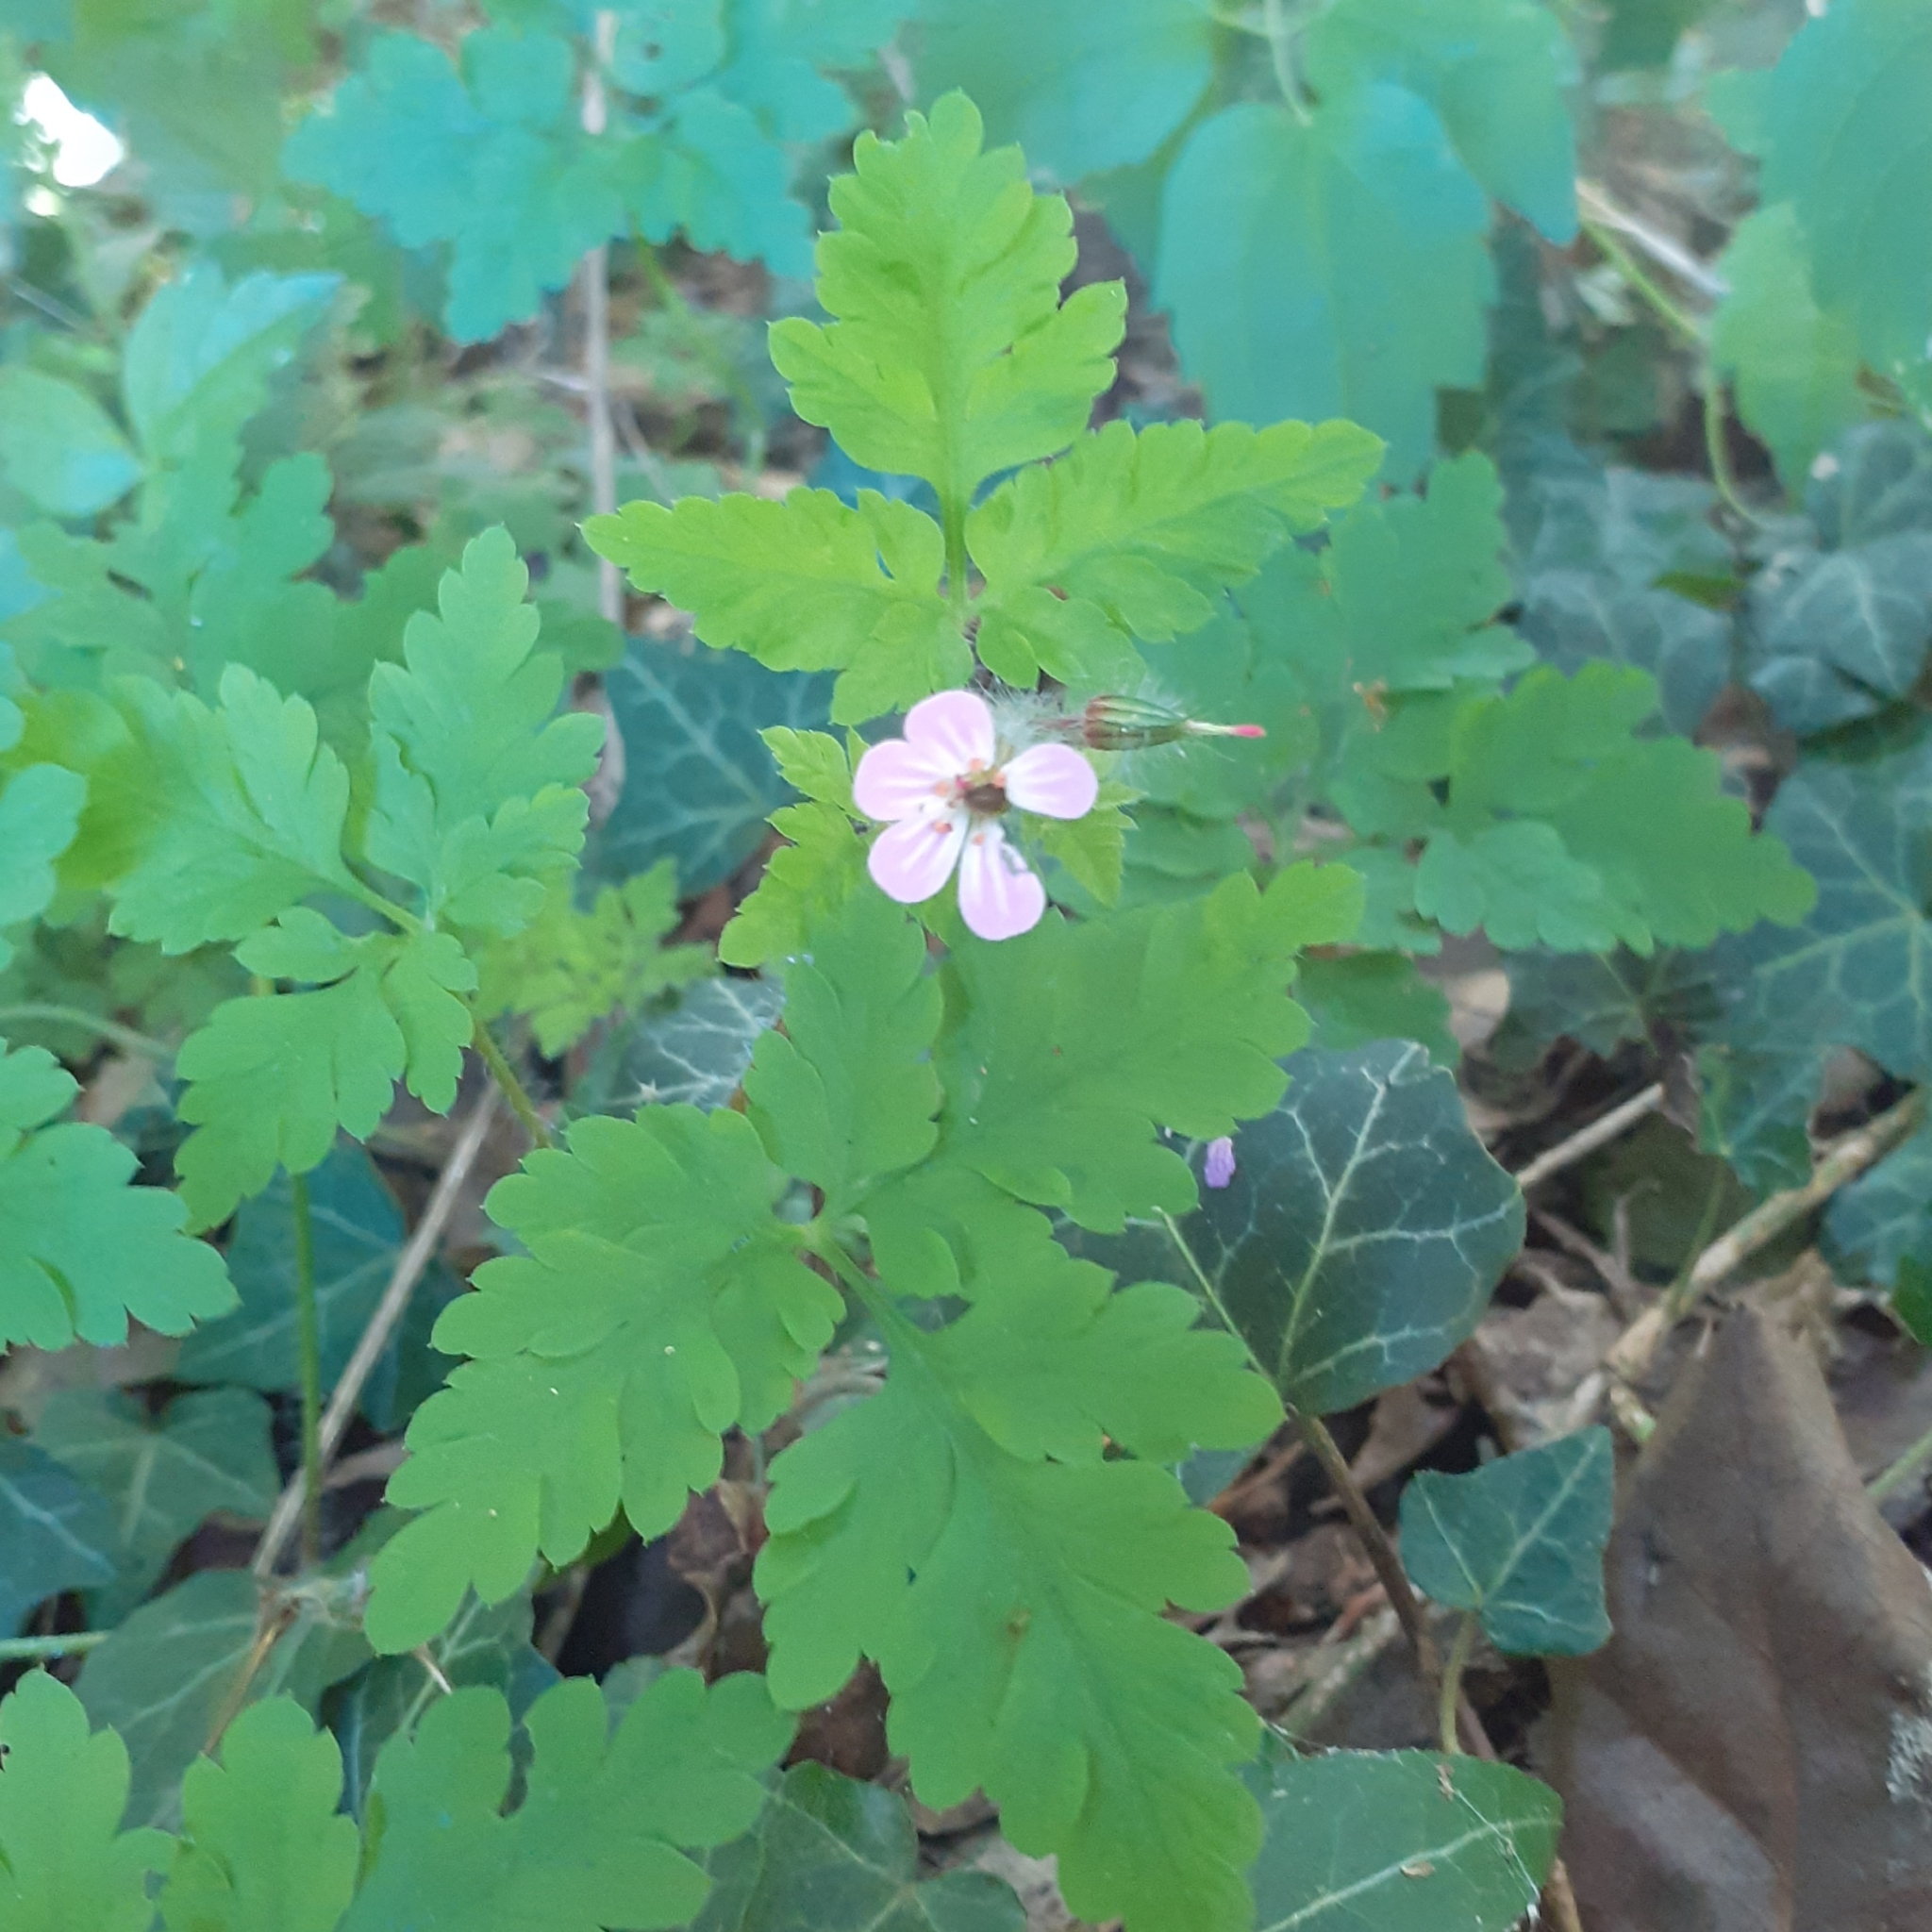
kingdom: Plantae
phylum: Tracheophyta
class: Magnoliopsida
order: Geraniales
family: Geraniaceae
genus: Geranium
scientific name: Geranium robertianum
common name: Herb-robert
